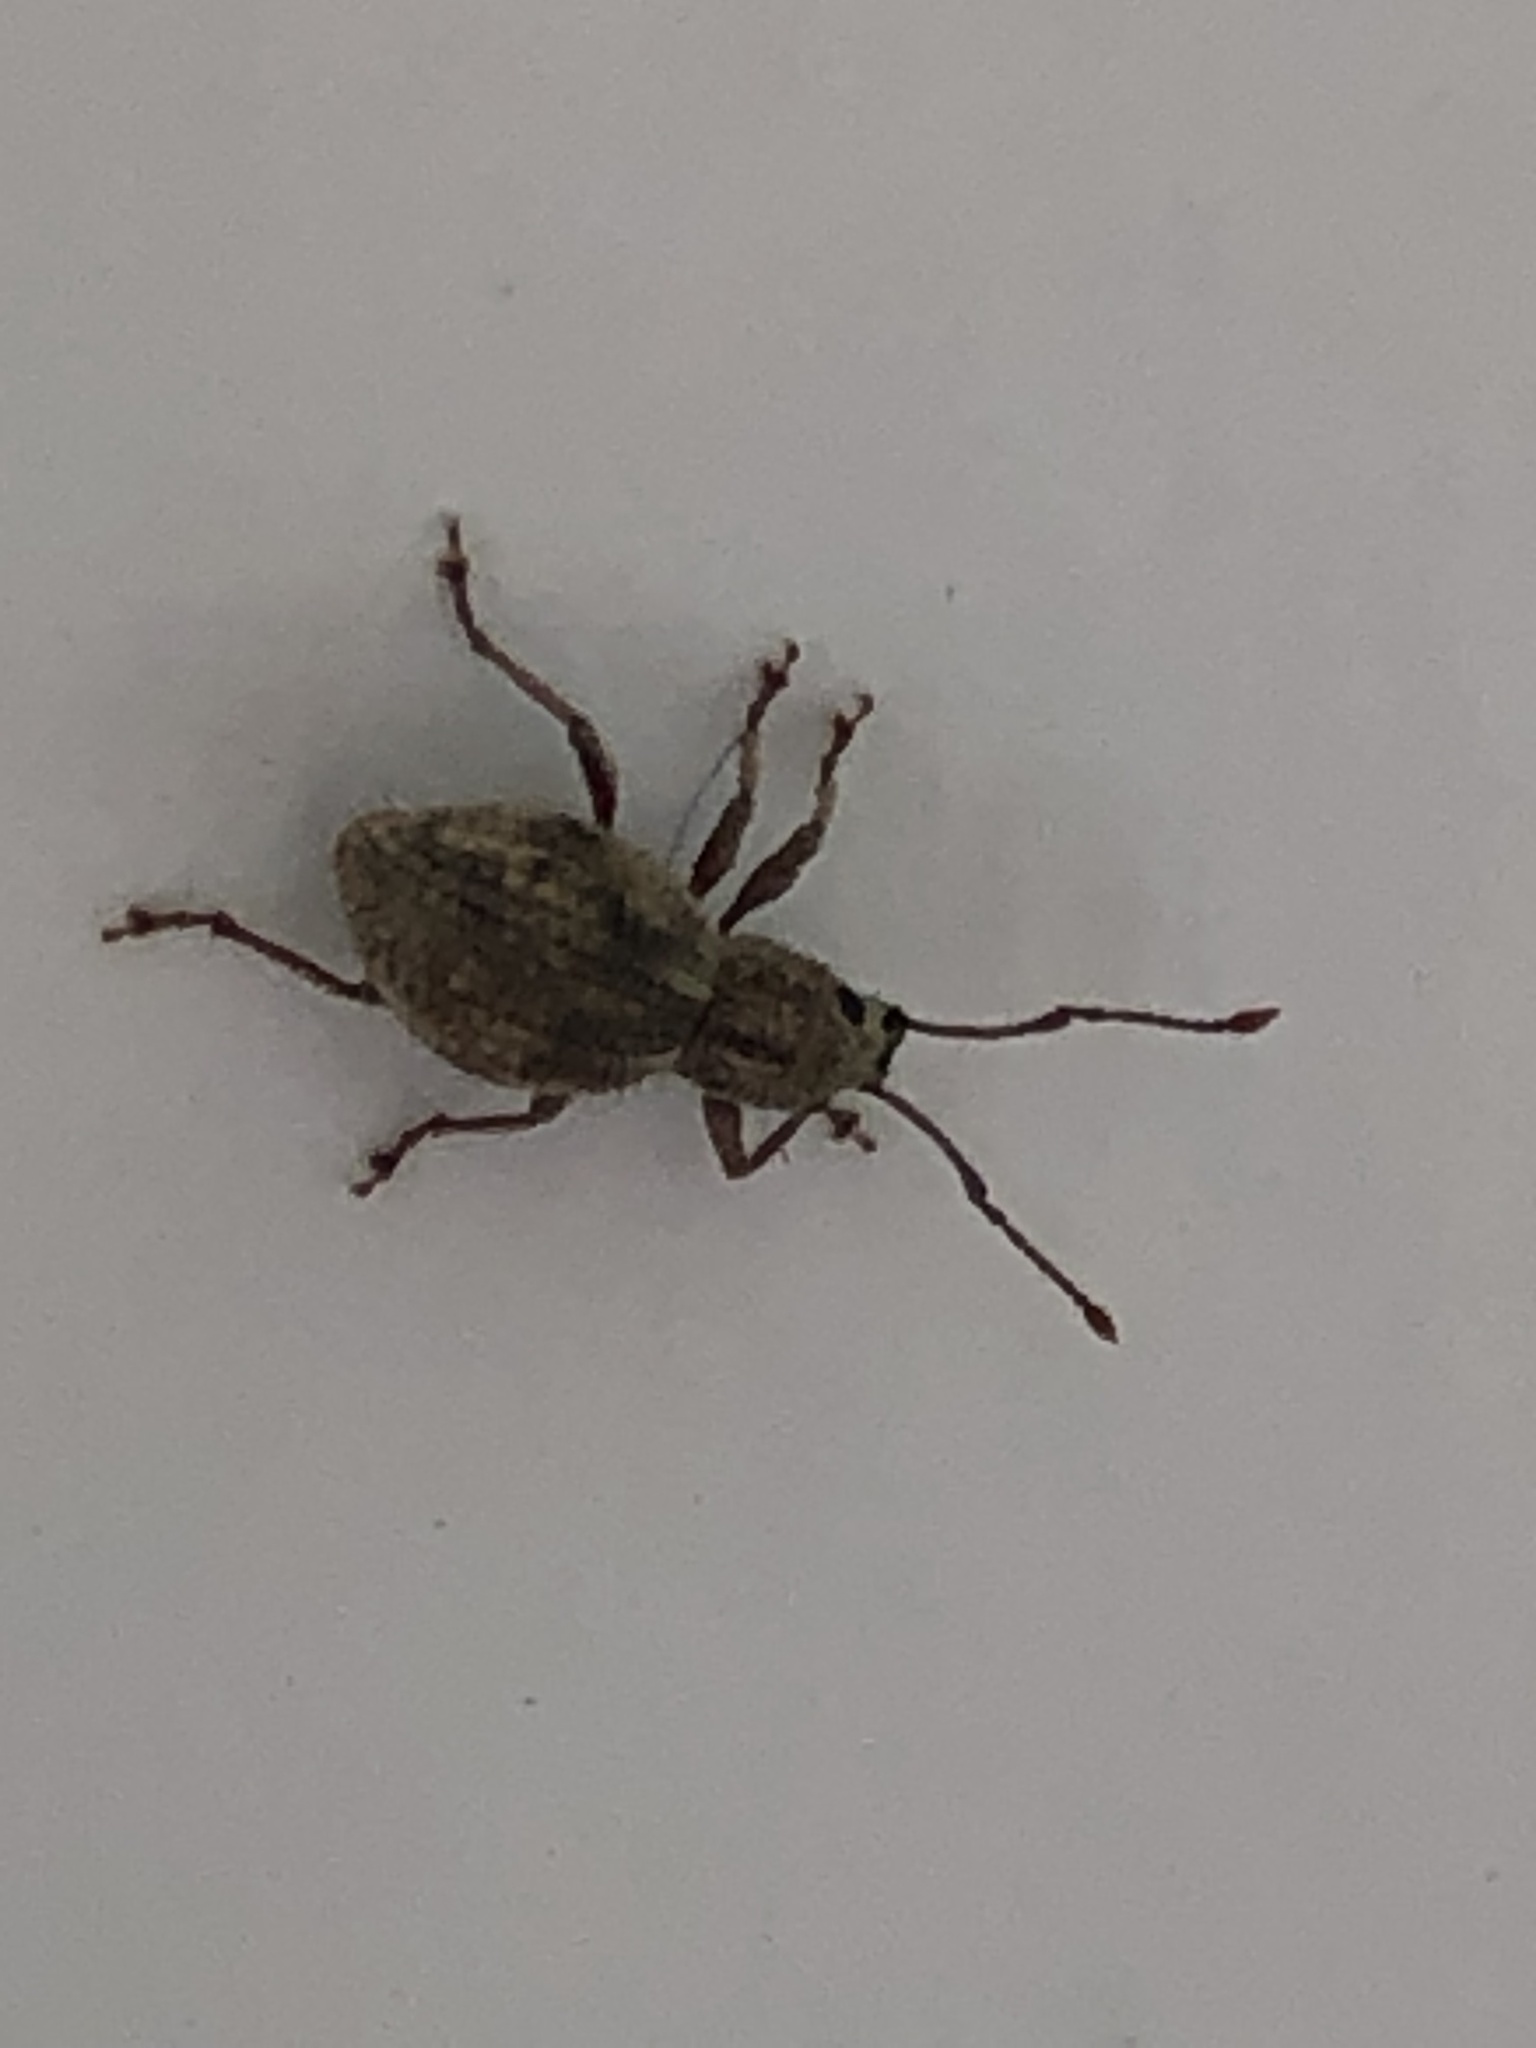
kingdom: Animalia
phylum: Arthropoda
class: Insecta
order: Coleoptera
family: Curculionidae
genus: Calomycterus
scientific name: Calomycterus setarius
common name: Weevil
